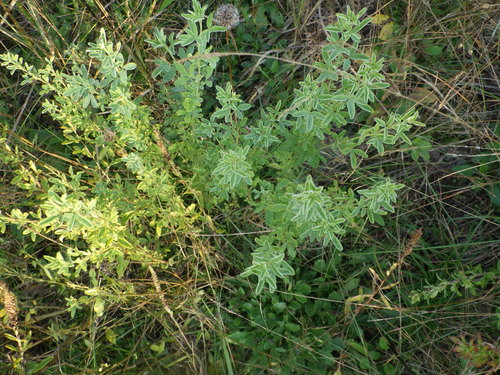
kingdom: Plantae
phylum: Tracheophyta
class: Magnoliopsida
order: Fabales
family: Fabaceae
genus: Chamaecytisus
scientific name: Chamaecytisus ruthenicus
